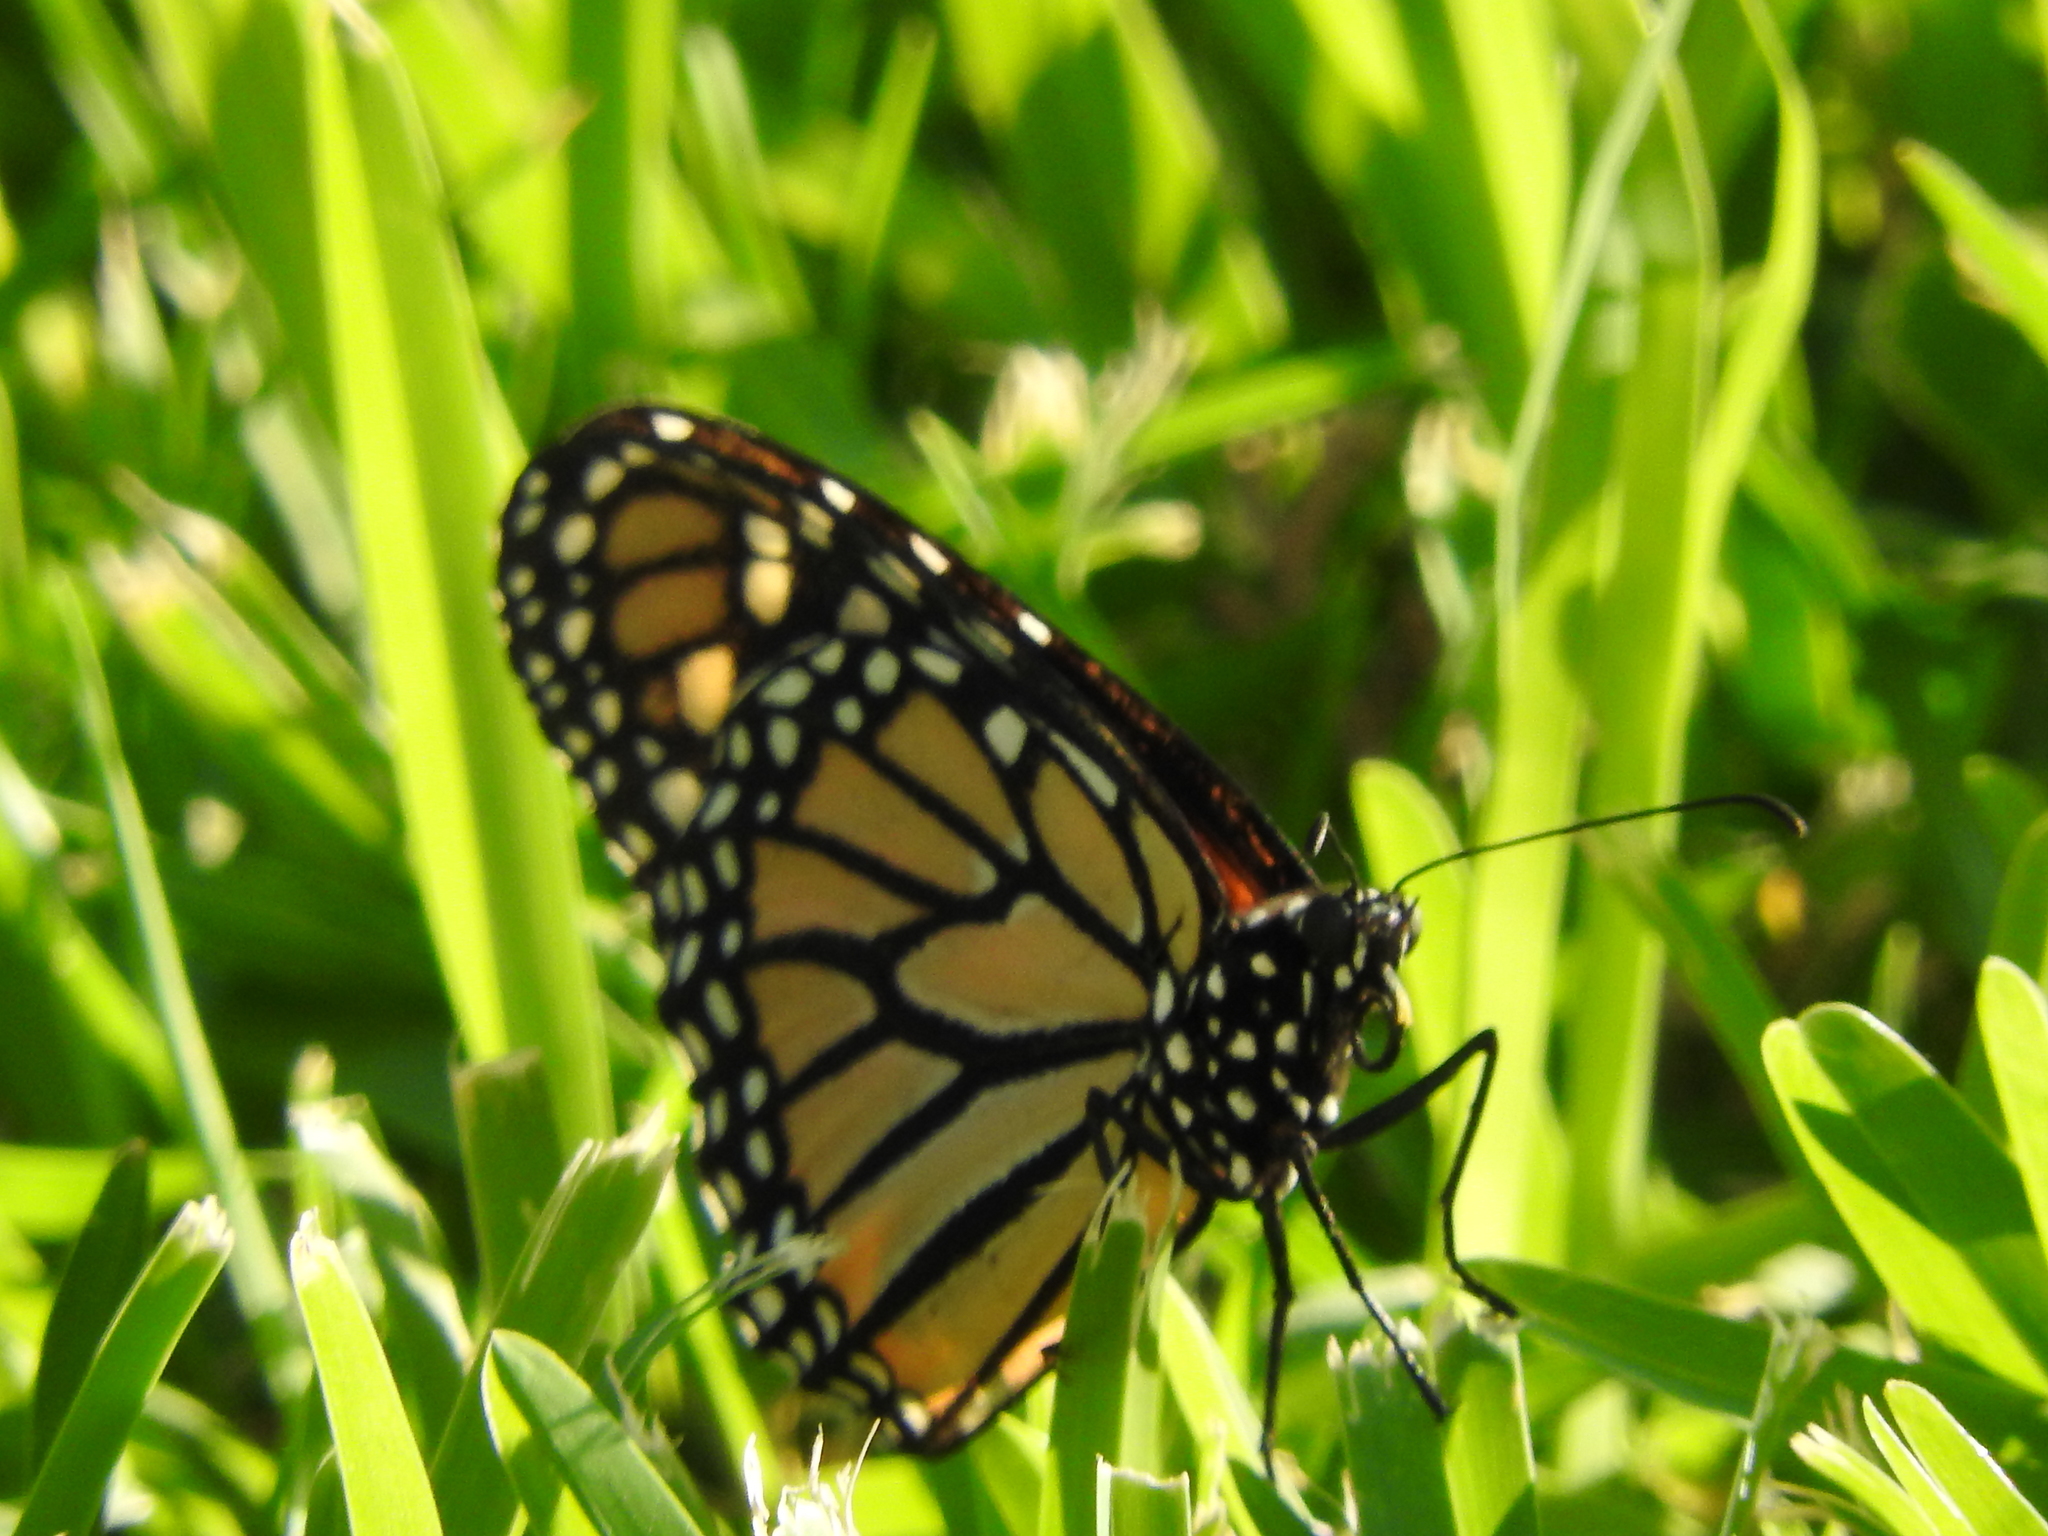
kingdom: Animalia
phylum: Arthropoda
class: Insecta
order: Lepidoptera
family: Nymphalidae
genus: Danaus
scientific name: Danaus plexippus
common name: Monarch
